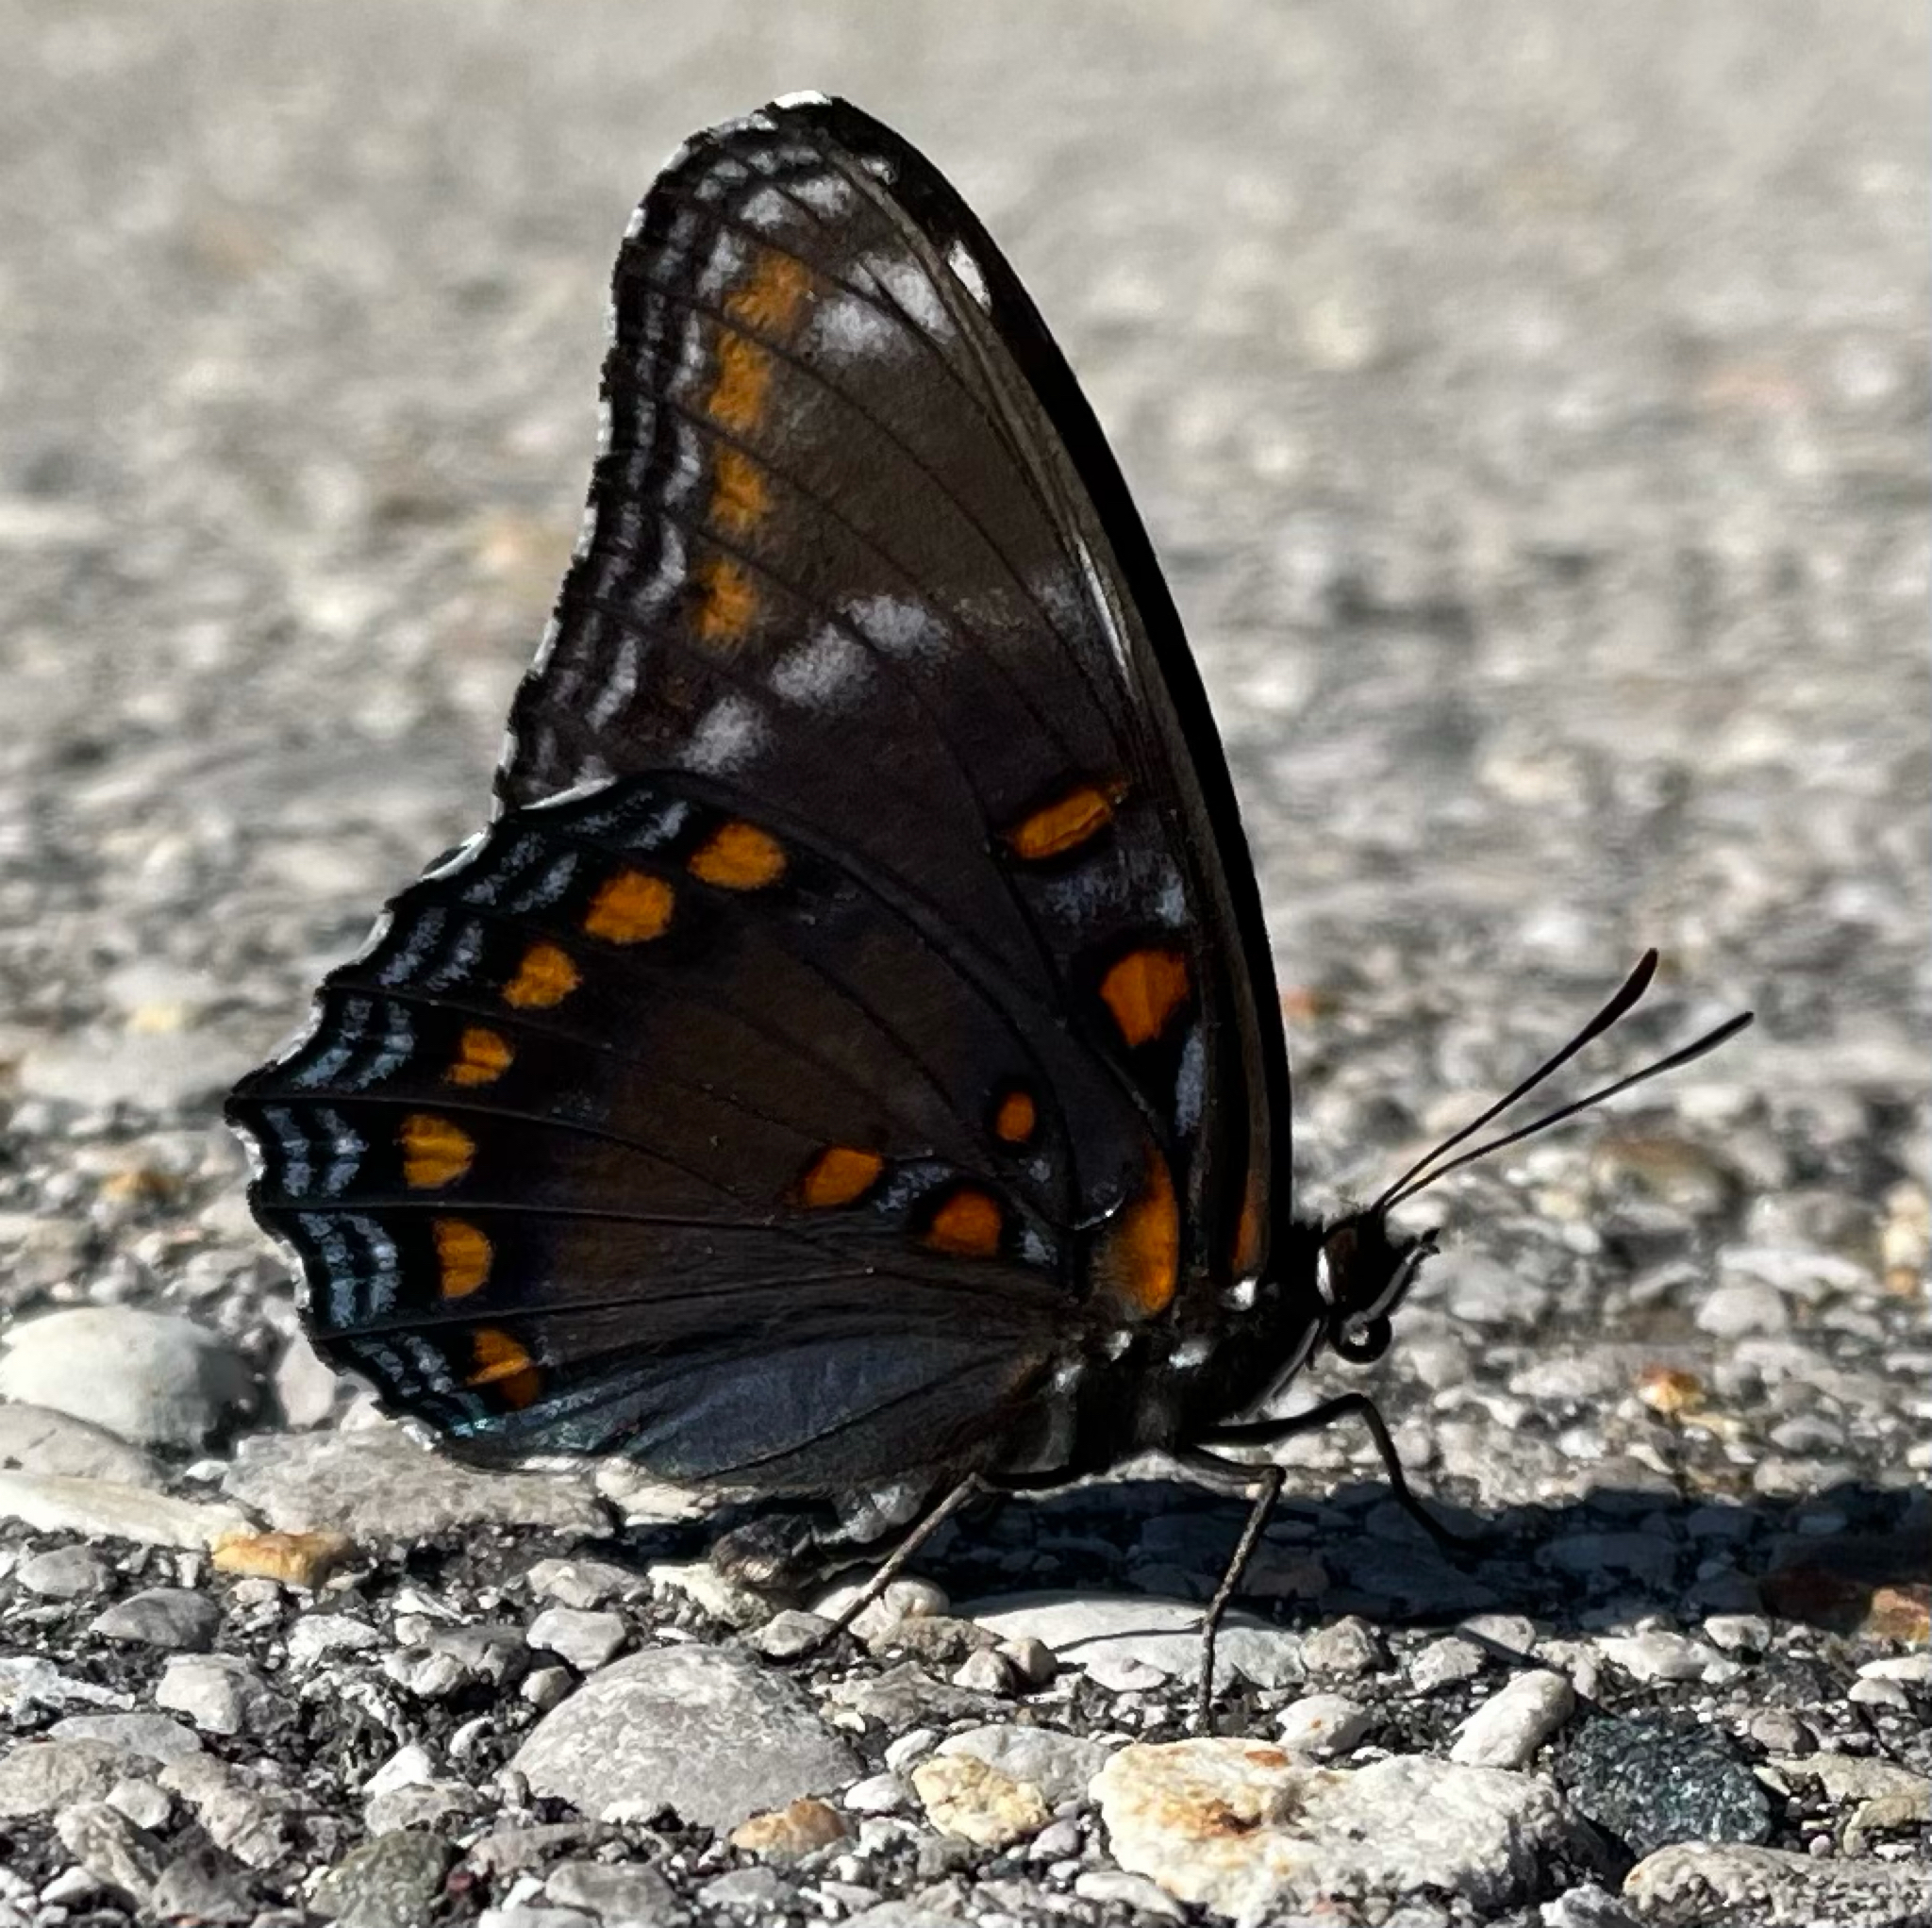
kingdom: Animalia
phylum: Arthropoda
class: Insecta
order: Lepidoptera
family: Nymphalidae
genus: Limenitis
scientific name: Limenitis
